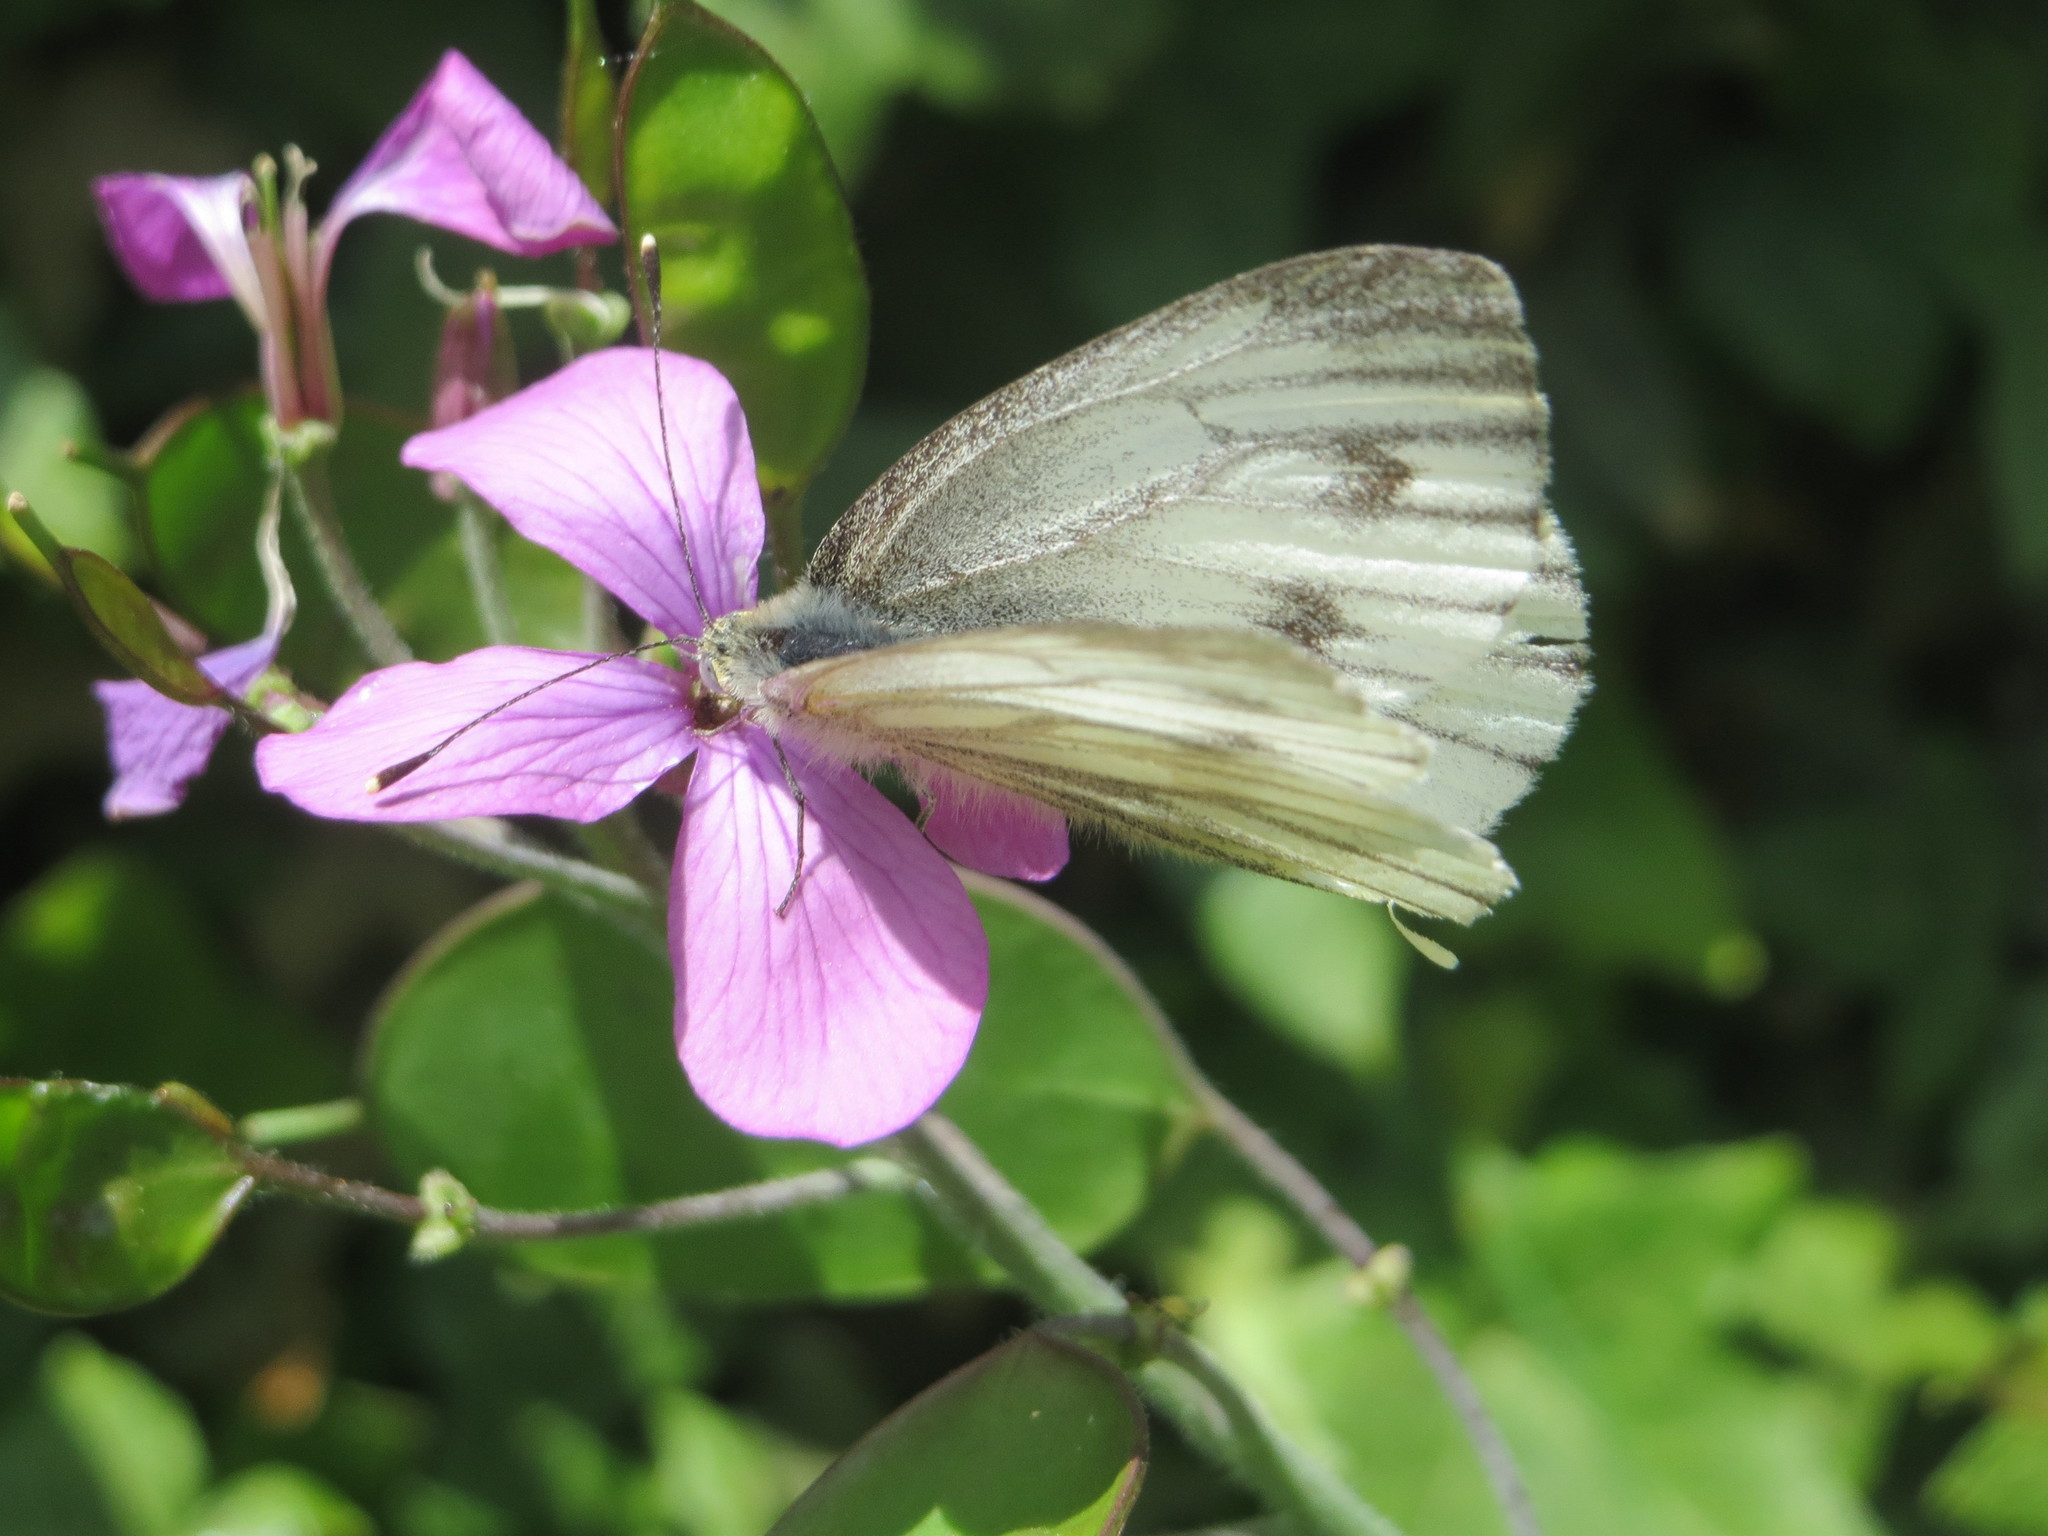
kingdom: Plantae
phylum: Tracheophyta
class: Magnoliopsida
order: Brassicales
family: Brassicaceae
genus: Lunaria
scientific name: Lunaria annua
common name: Honesty
